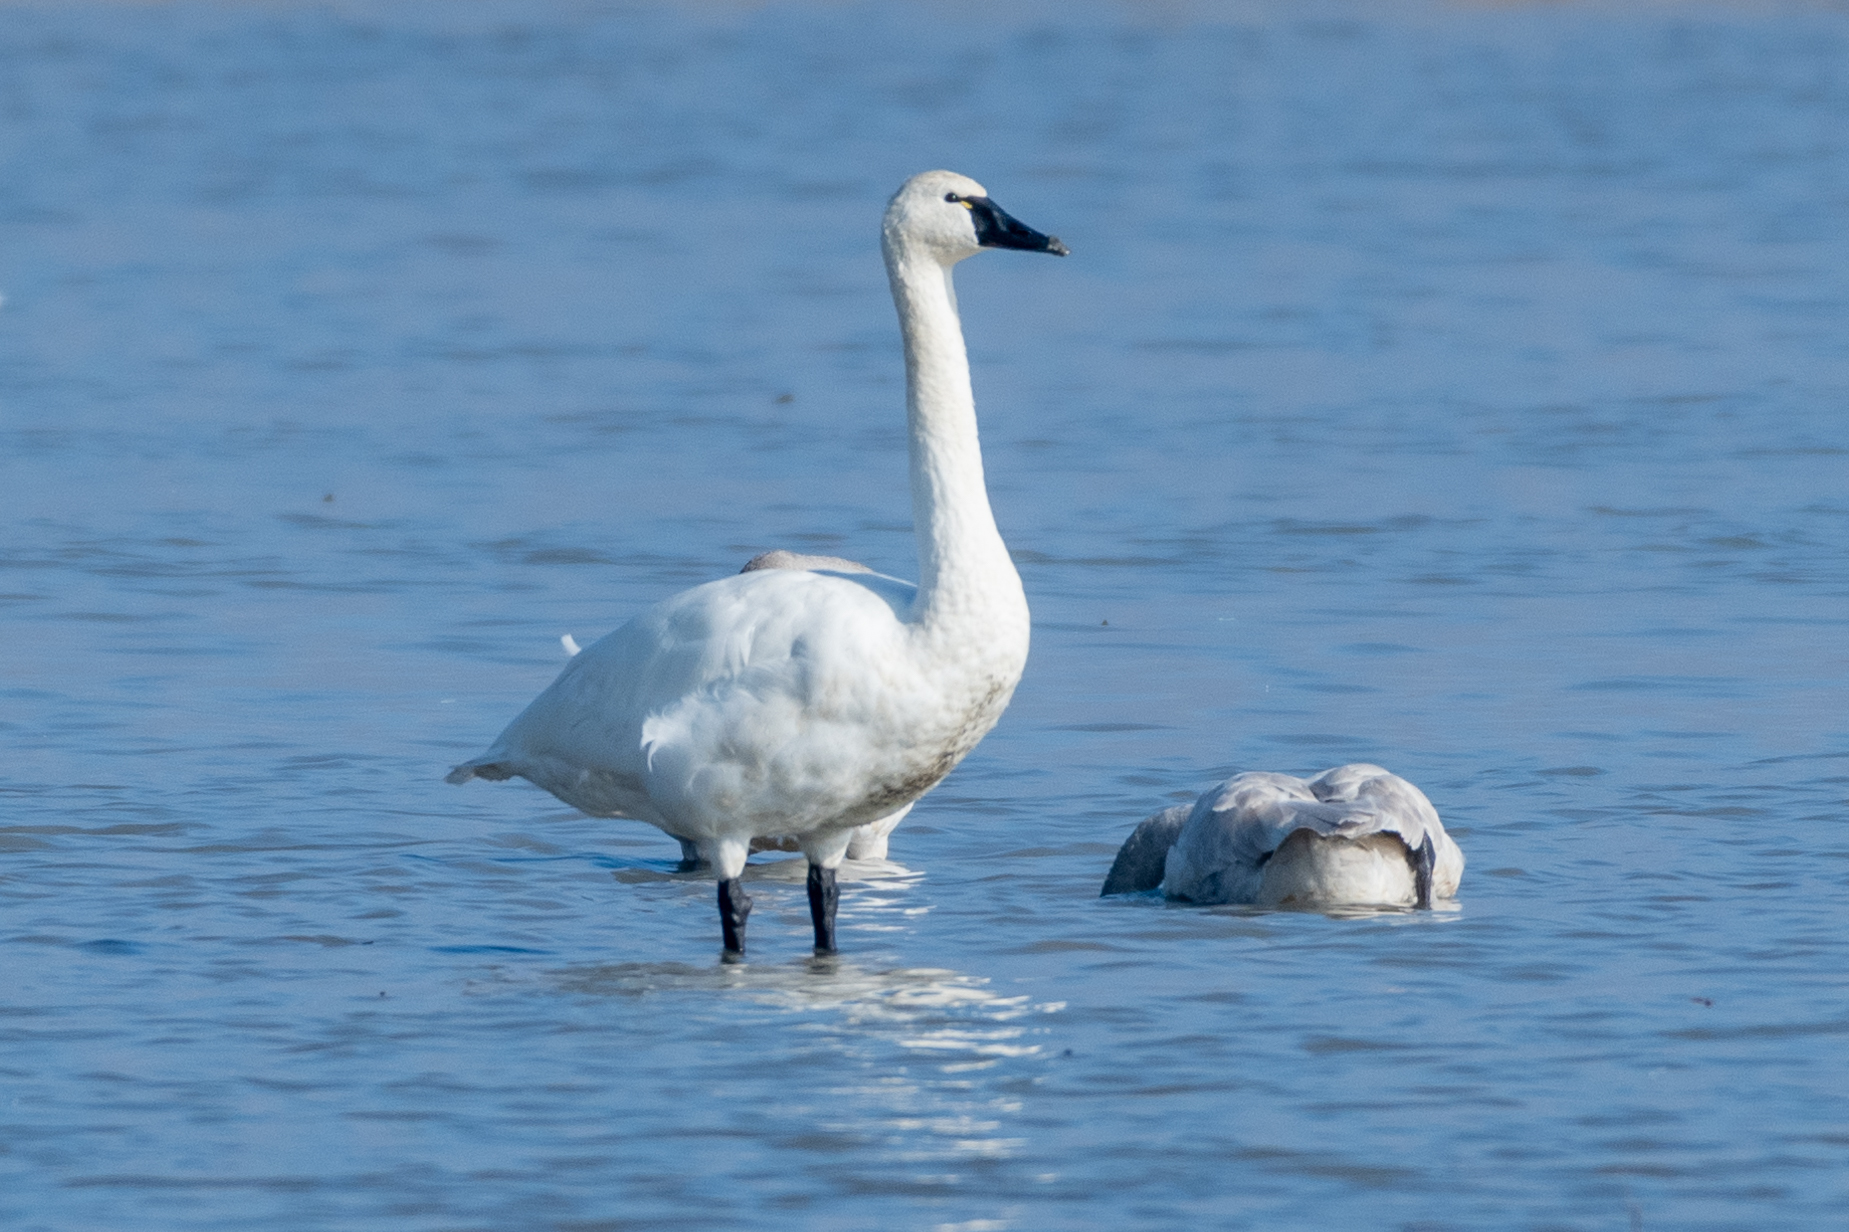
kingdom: Animalia
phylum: Chordata
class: Aves
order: Anseriformes
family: Anatidae
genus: Cygnus
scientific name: Cygnus columbianus
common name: Tundra swan
